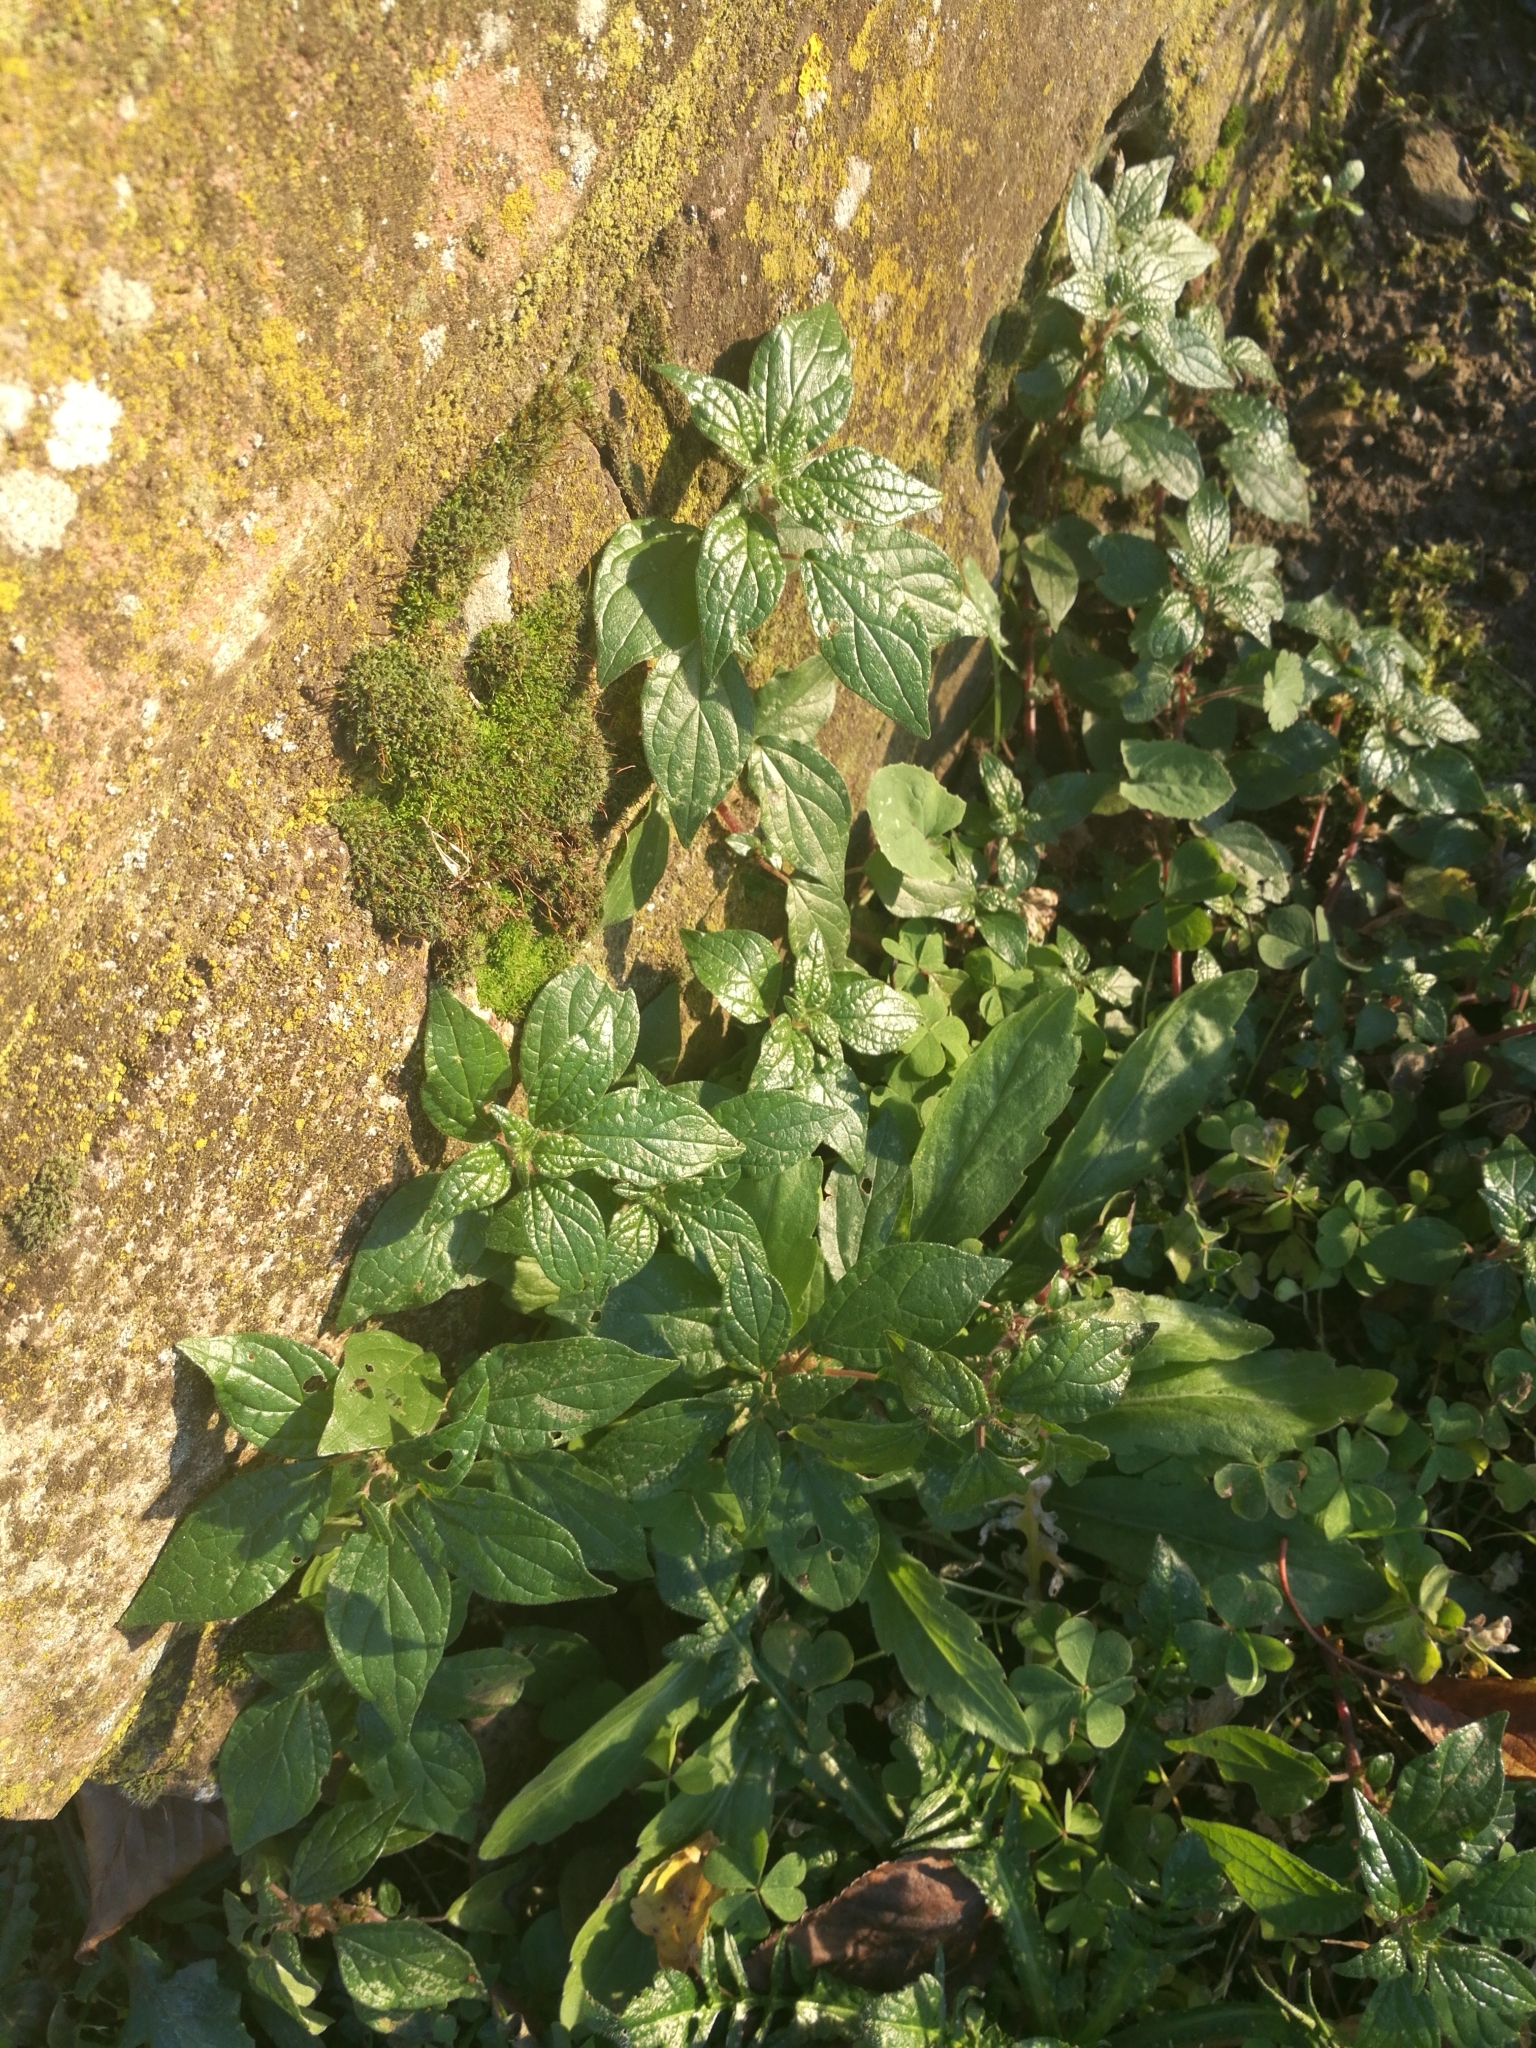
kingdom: Plantae
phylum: Tracheophyta
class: Magnoliopsida
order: Rosales
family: Urticaceae
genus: Parietaria
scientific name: Parietaria judaica
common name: Pellitory-of-the-wall
